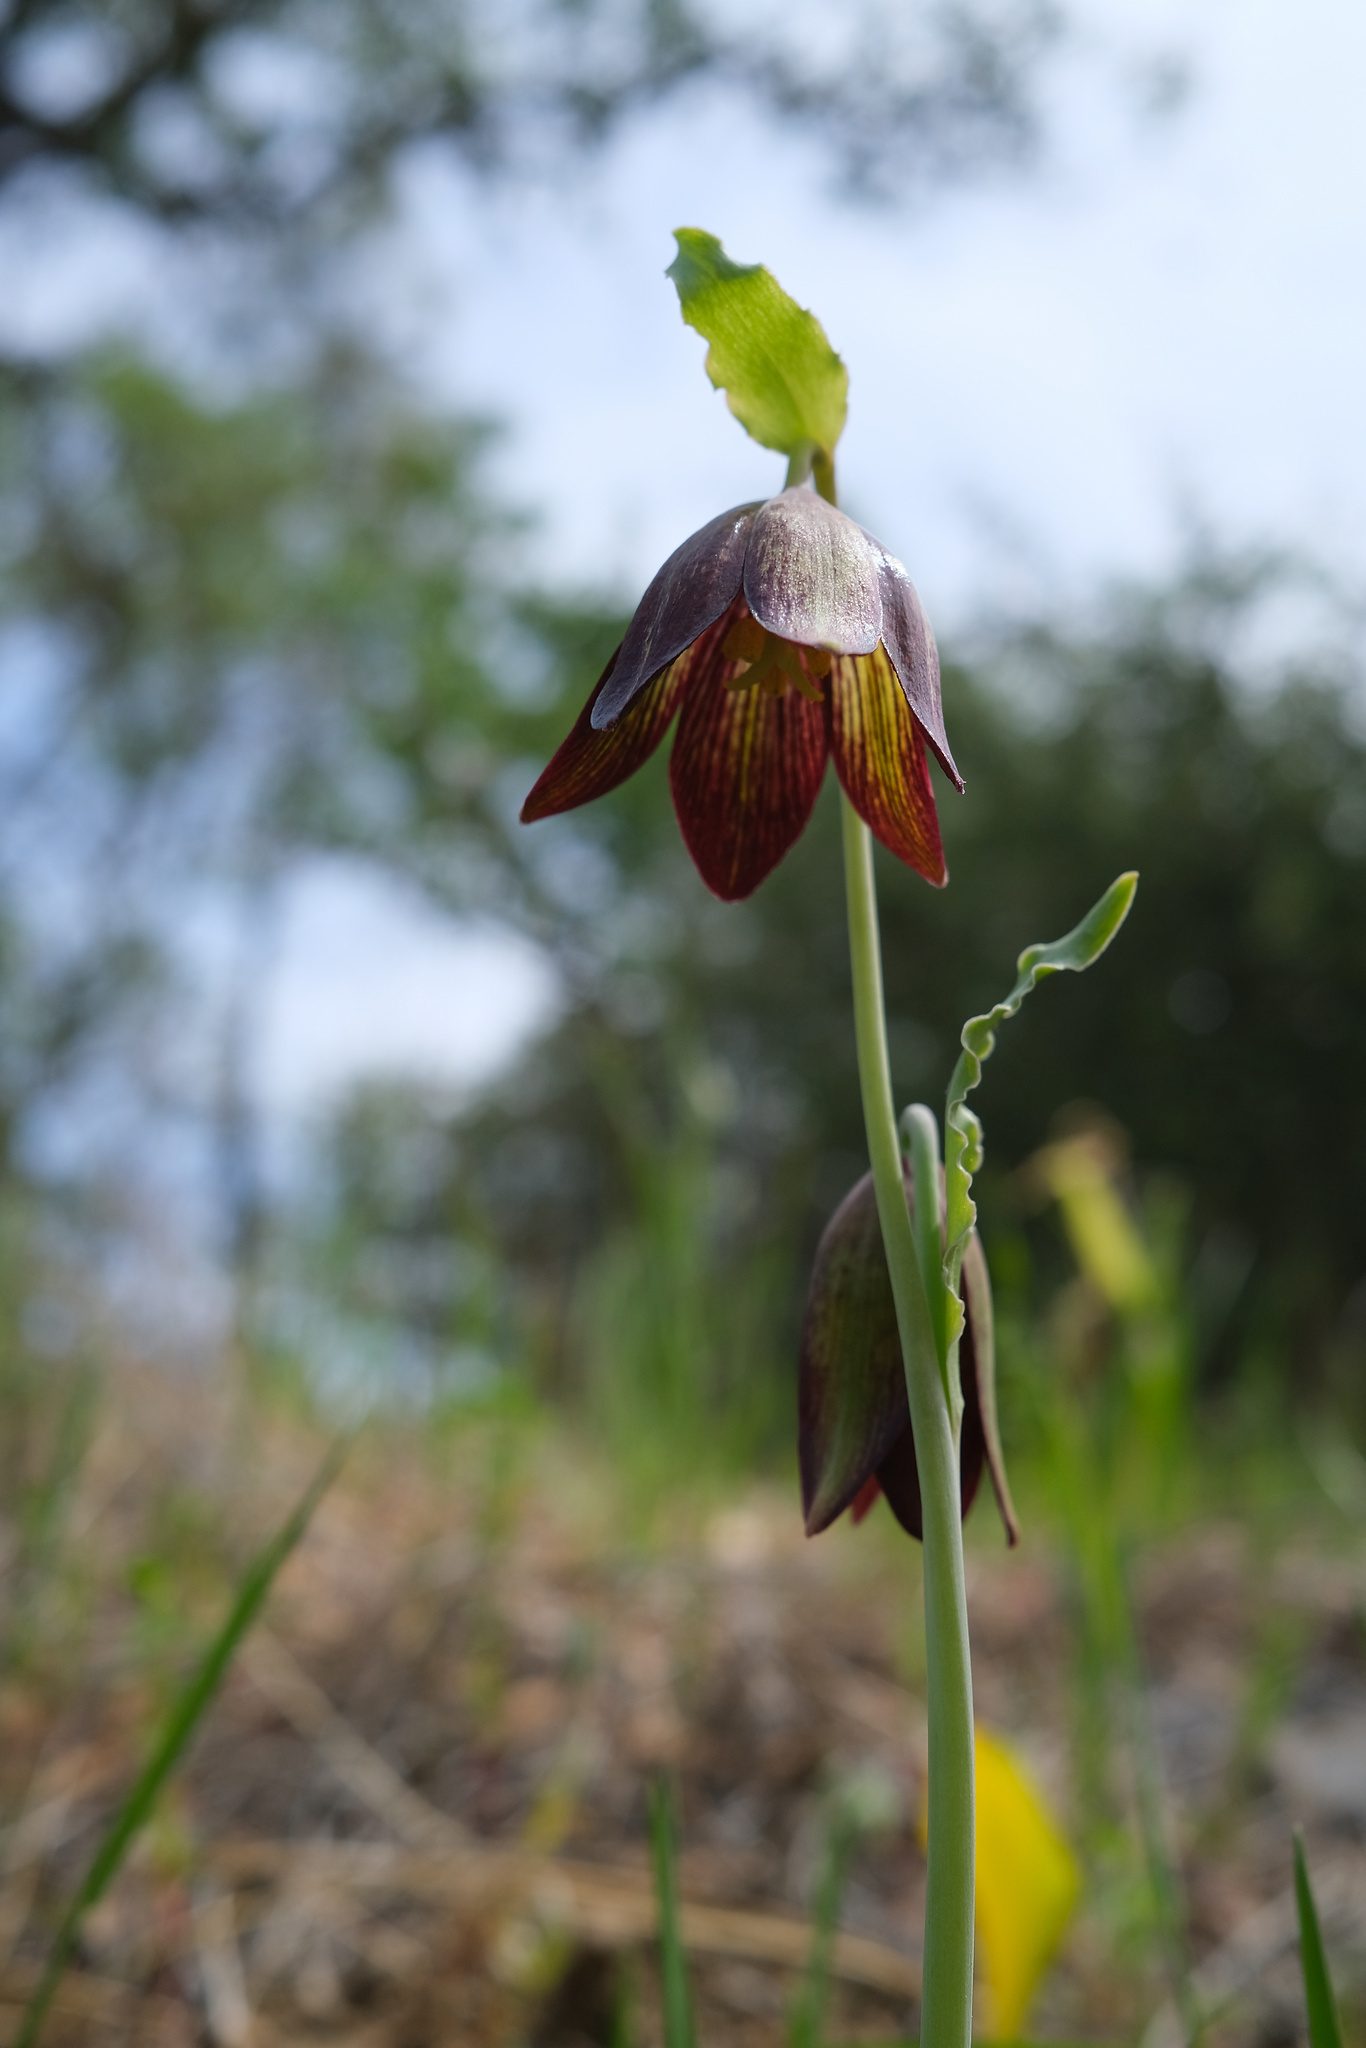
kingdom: Plantae
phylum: Tracheophyta
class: Liliopsida
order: Liliales
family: Liliaceae
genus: Fritillaria
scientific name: Fritillaria biflora
